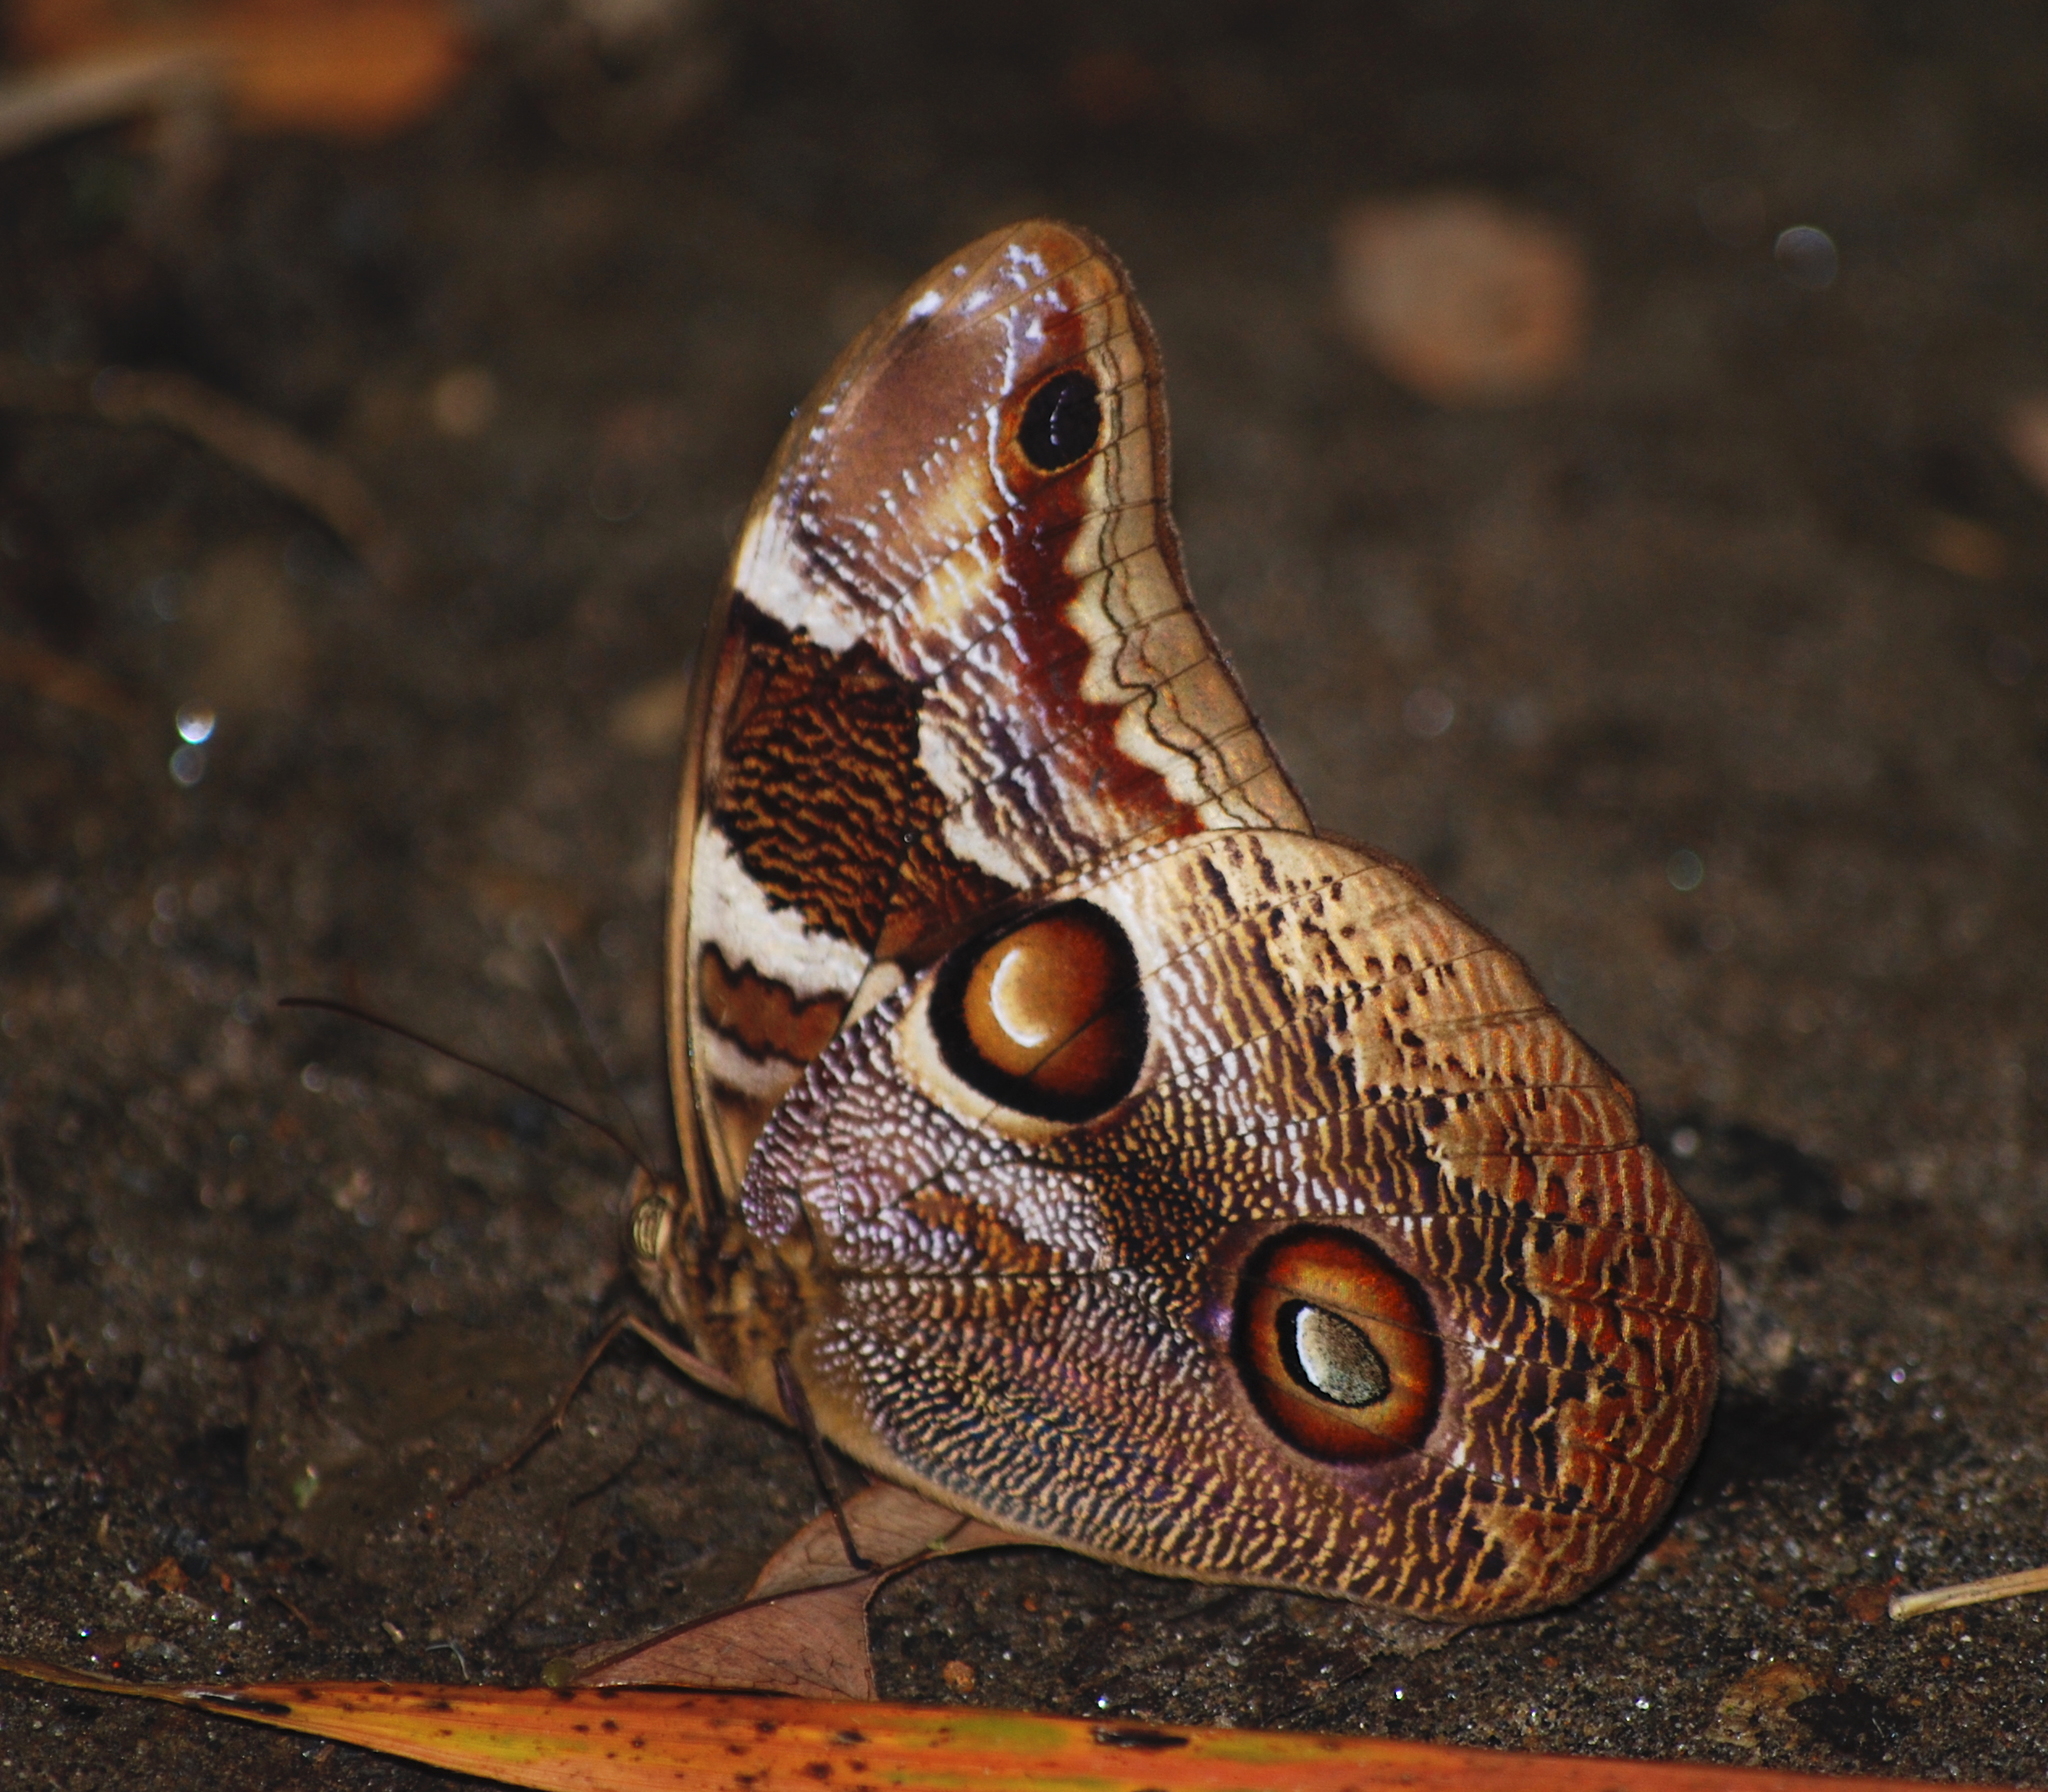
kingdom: Animalia
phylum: Arthropoda
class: Insecta
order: Lepidoptera
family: Nymphalidae
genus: Catoblepia
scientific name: Catoblepia orgetorix
